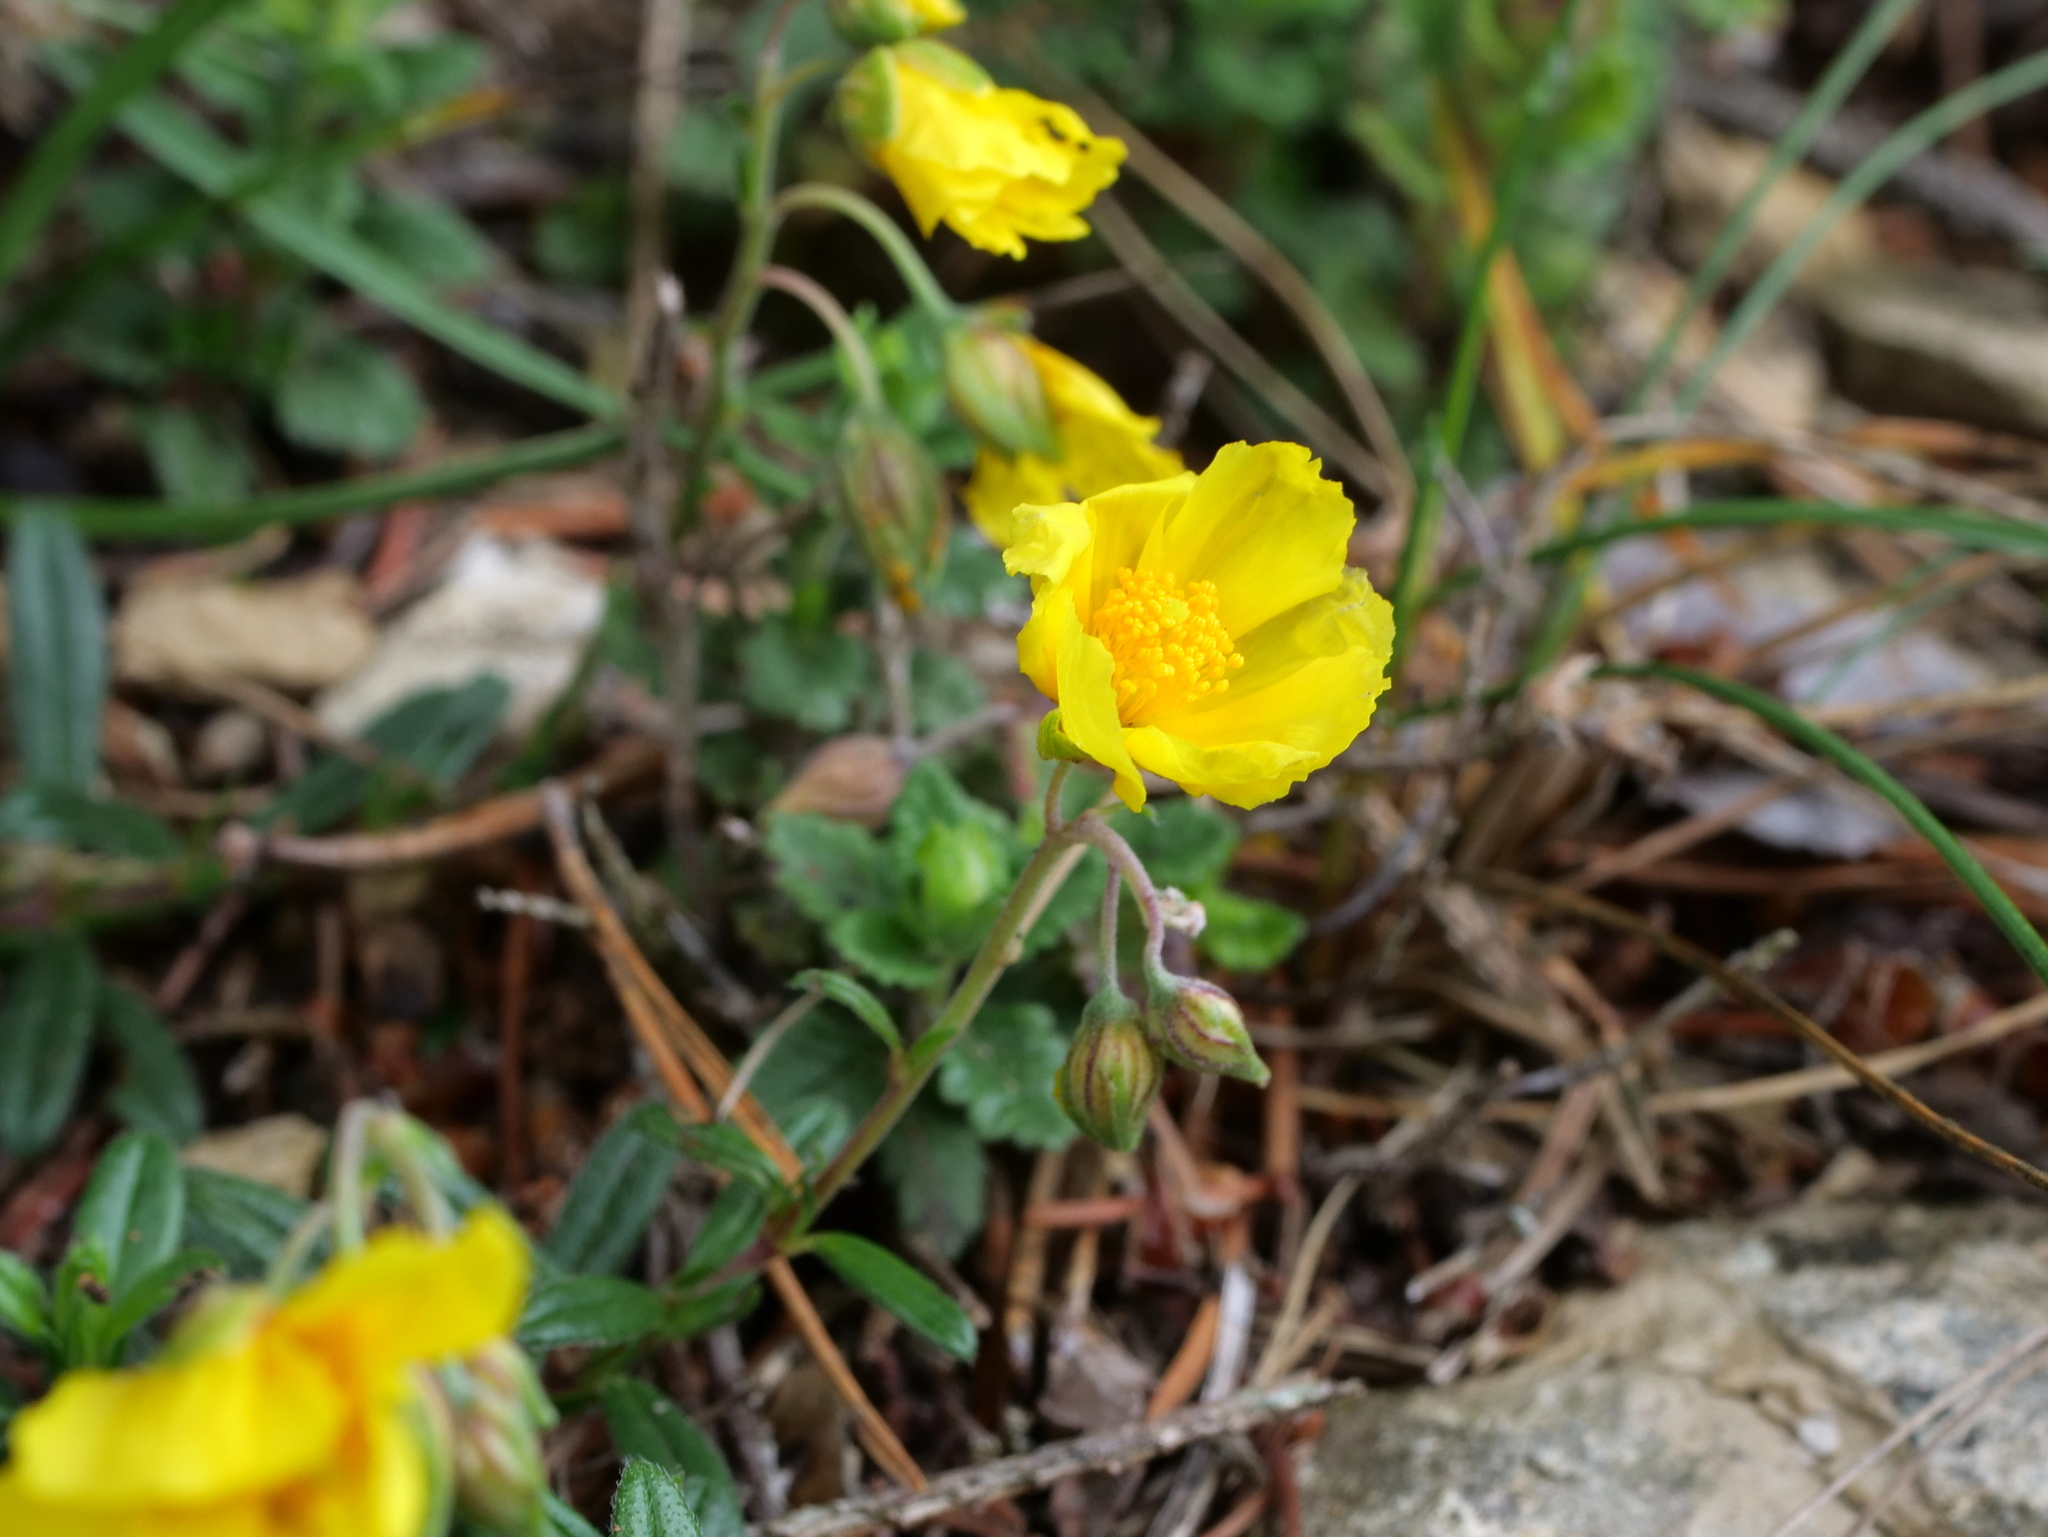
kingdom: Plantae
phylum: Tracheophyta
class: Magnoliopsida
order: Malvales
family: Cistaceae
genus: Helianthemum
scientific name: Helianthemum nummularium
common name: Common rock-rose
